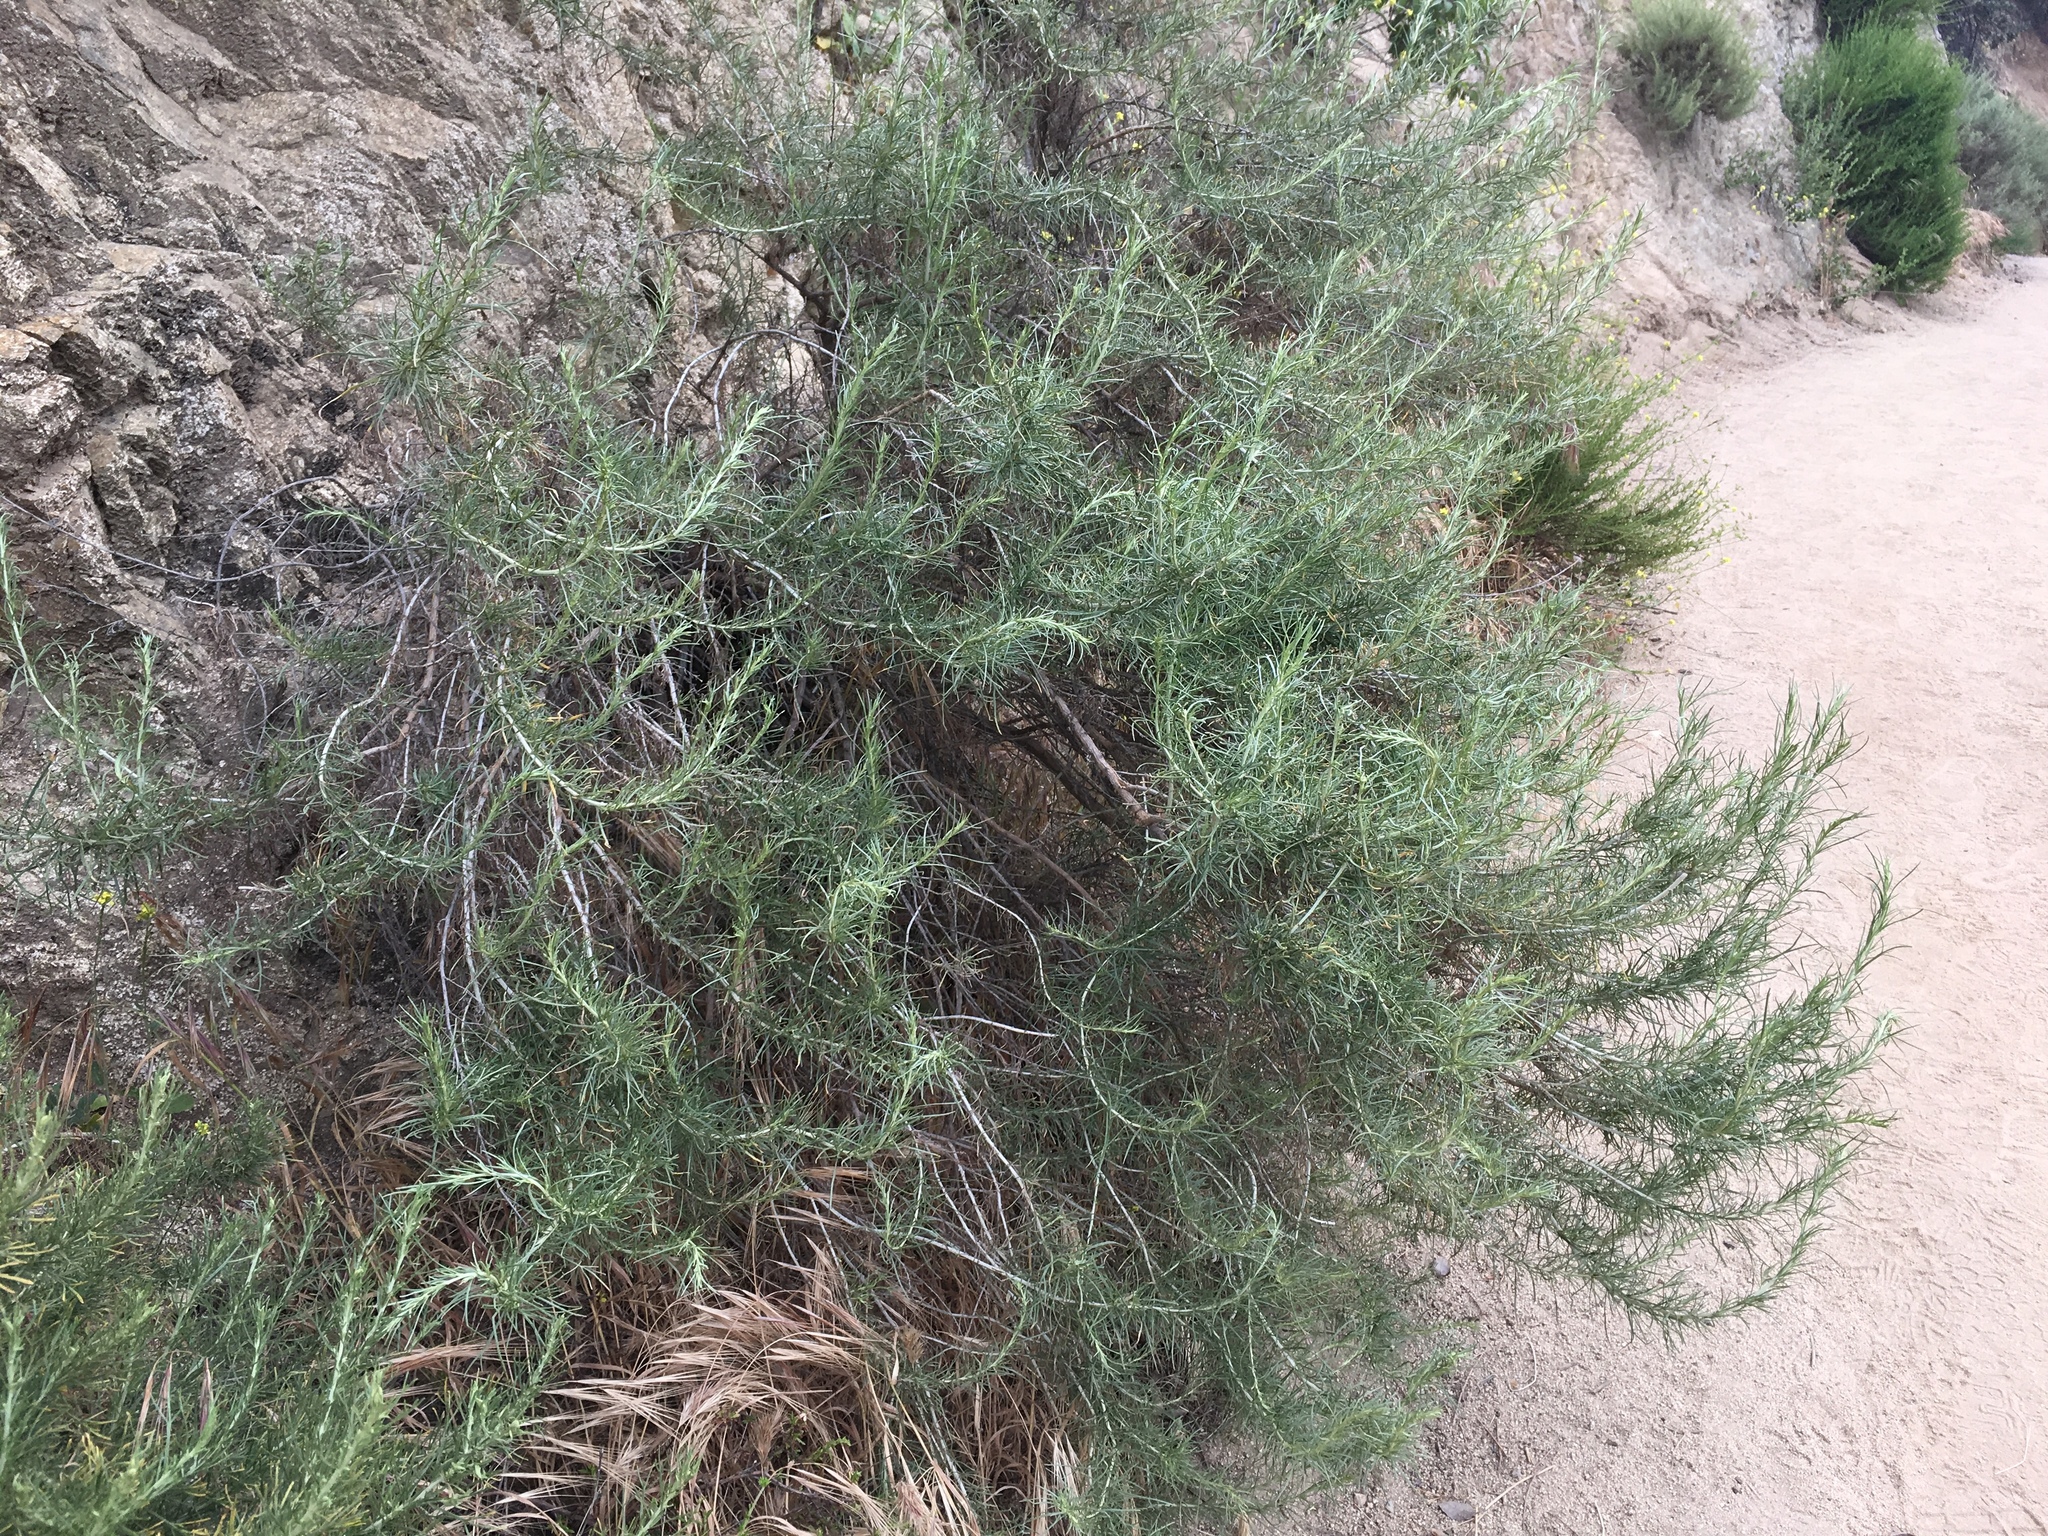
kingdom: Plantae
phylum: Tracheophyta
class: Magnoliopsida
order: Asterales
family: Asteraceae
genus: Artemisia
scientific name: Artemisia californica
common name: California sagebrush
